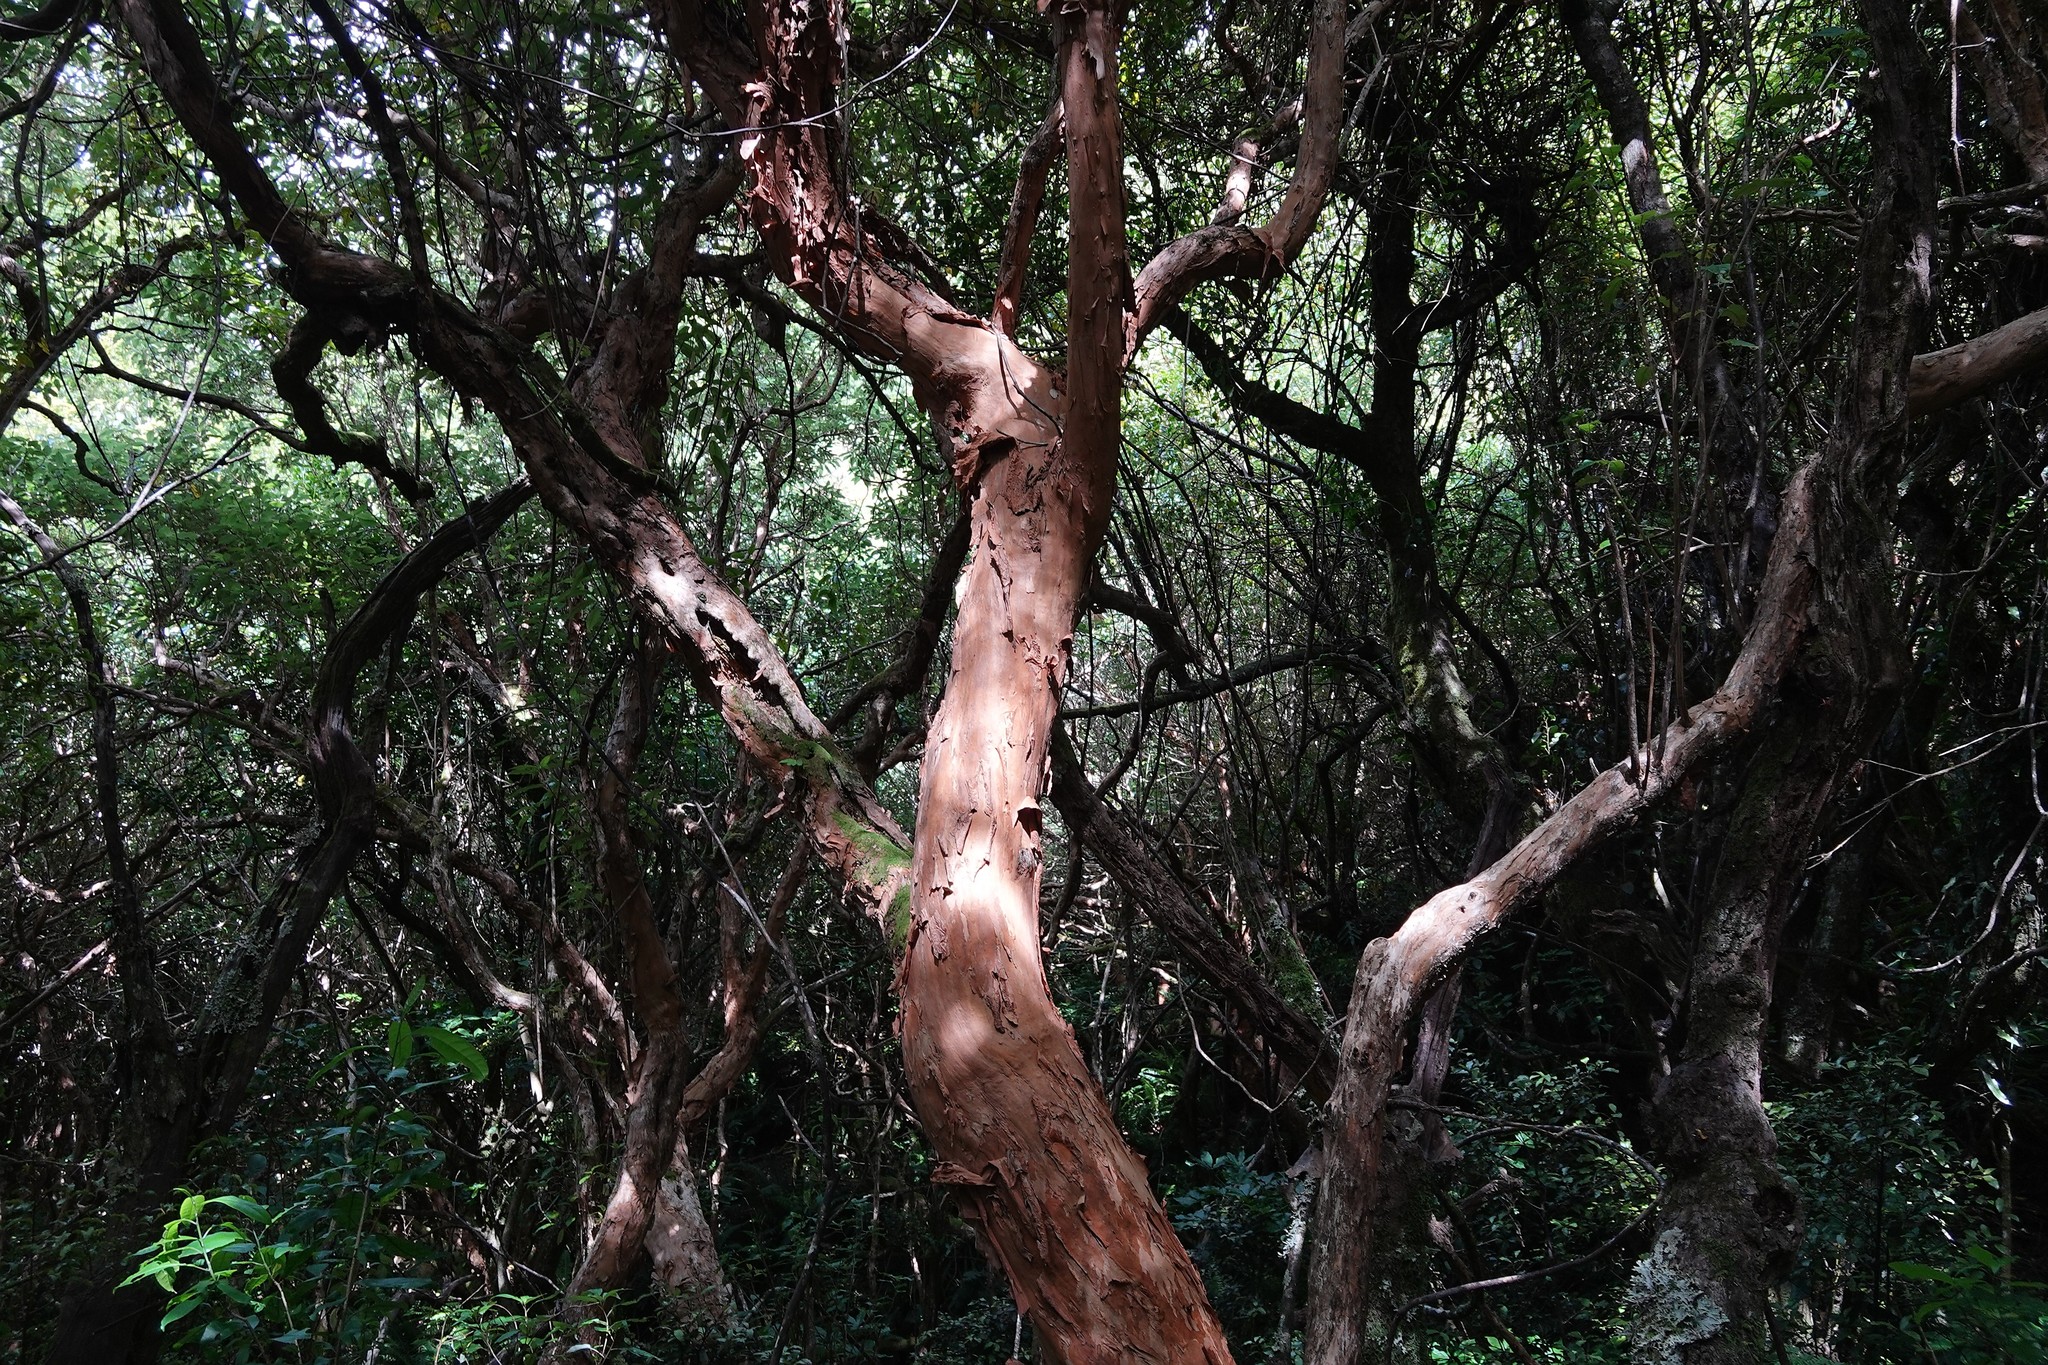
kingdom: Plantae
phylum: Tracheophyta
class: Magnoliopsida
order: Myrtales
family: Onagraceae
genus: Fuchsia
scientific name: Fuchsia excorticata
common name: Tree fuchsia
